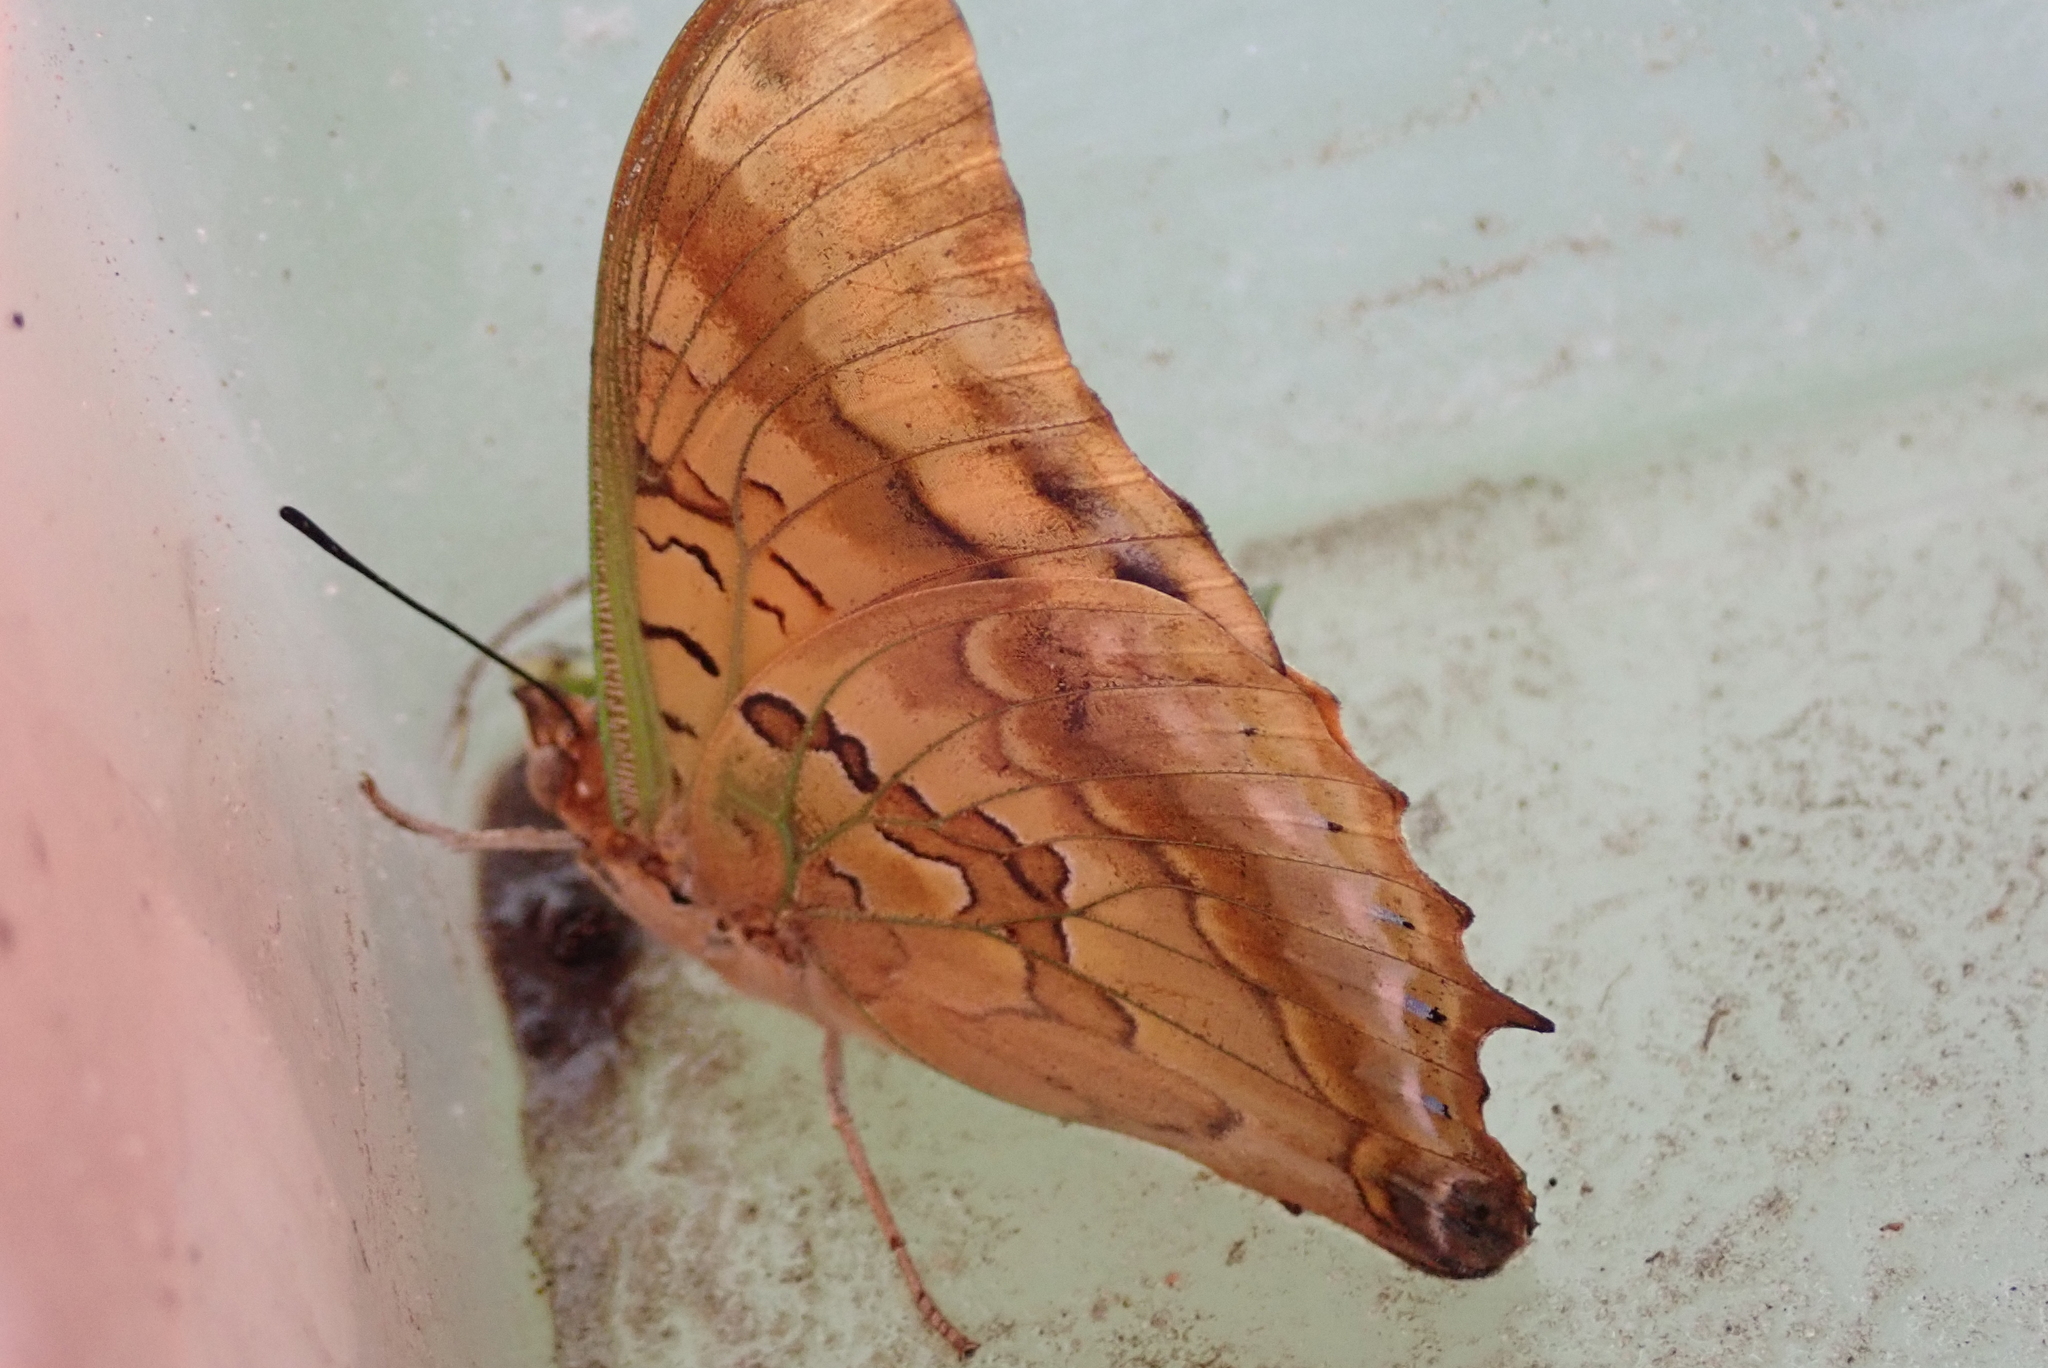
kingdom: Animalia
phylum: Arthropoda
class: Insecta
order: Lepidoptera
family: Nymphalidae
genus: Charaxes
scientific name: Charaxes candiope
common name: Green-veined charaxes
